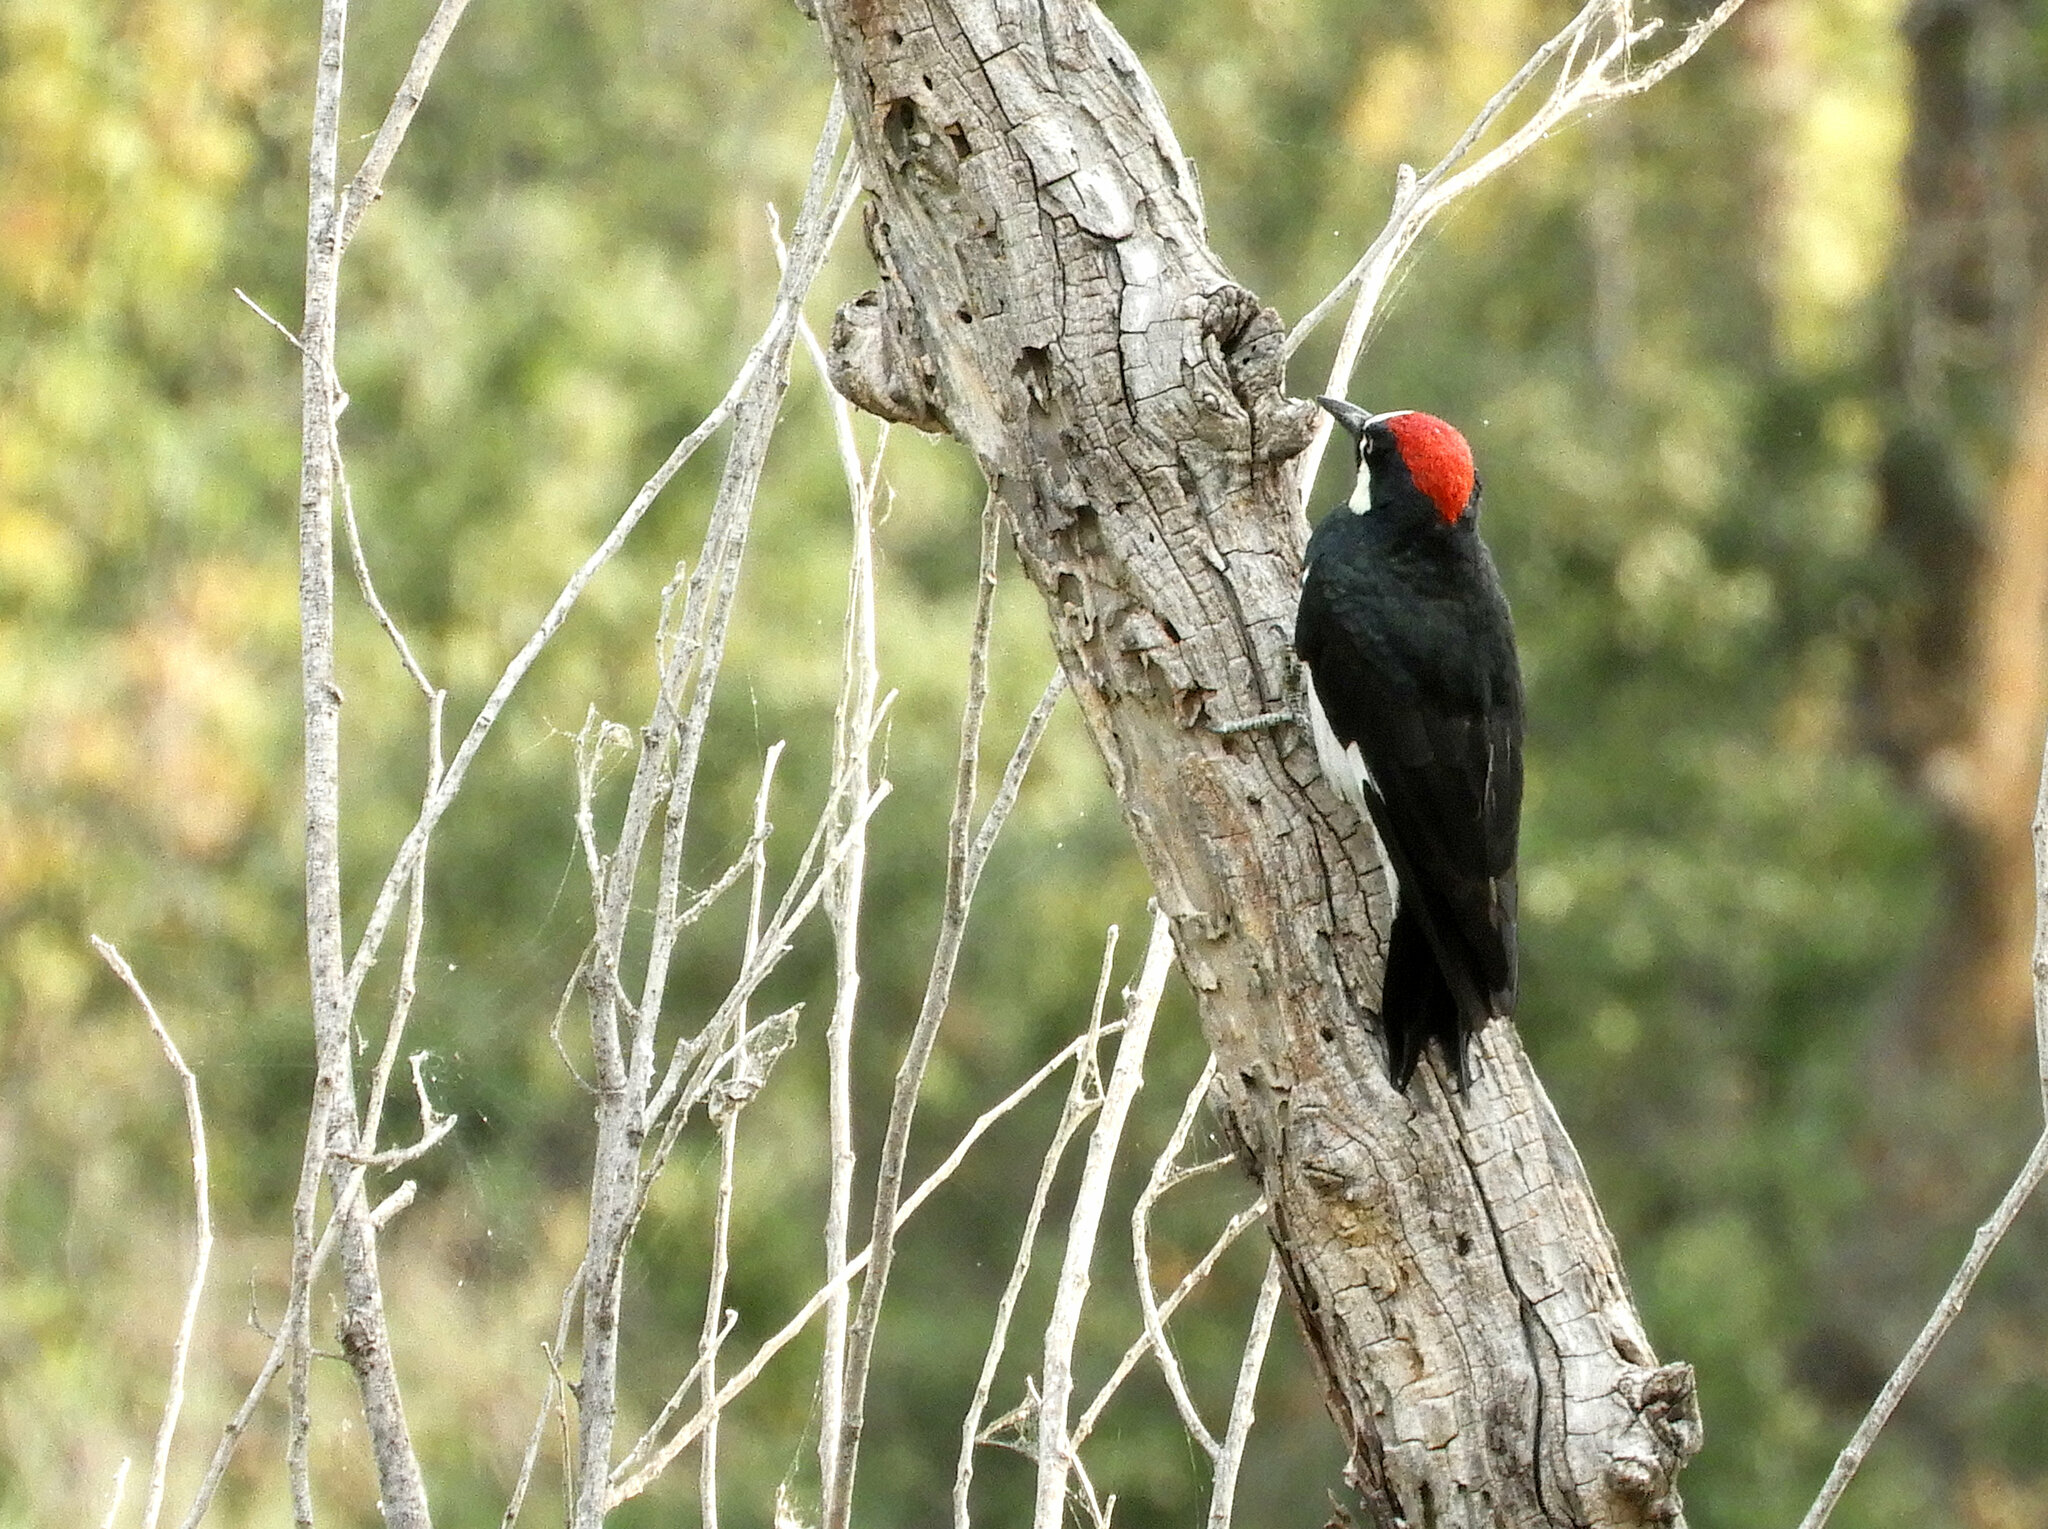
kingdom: Animalia
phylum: Chordata
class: Aves
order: Piciformes
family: Picidae
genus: Melanerpes
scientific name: Melanerpes formicivorus
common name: Acorn woodpecker
